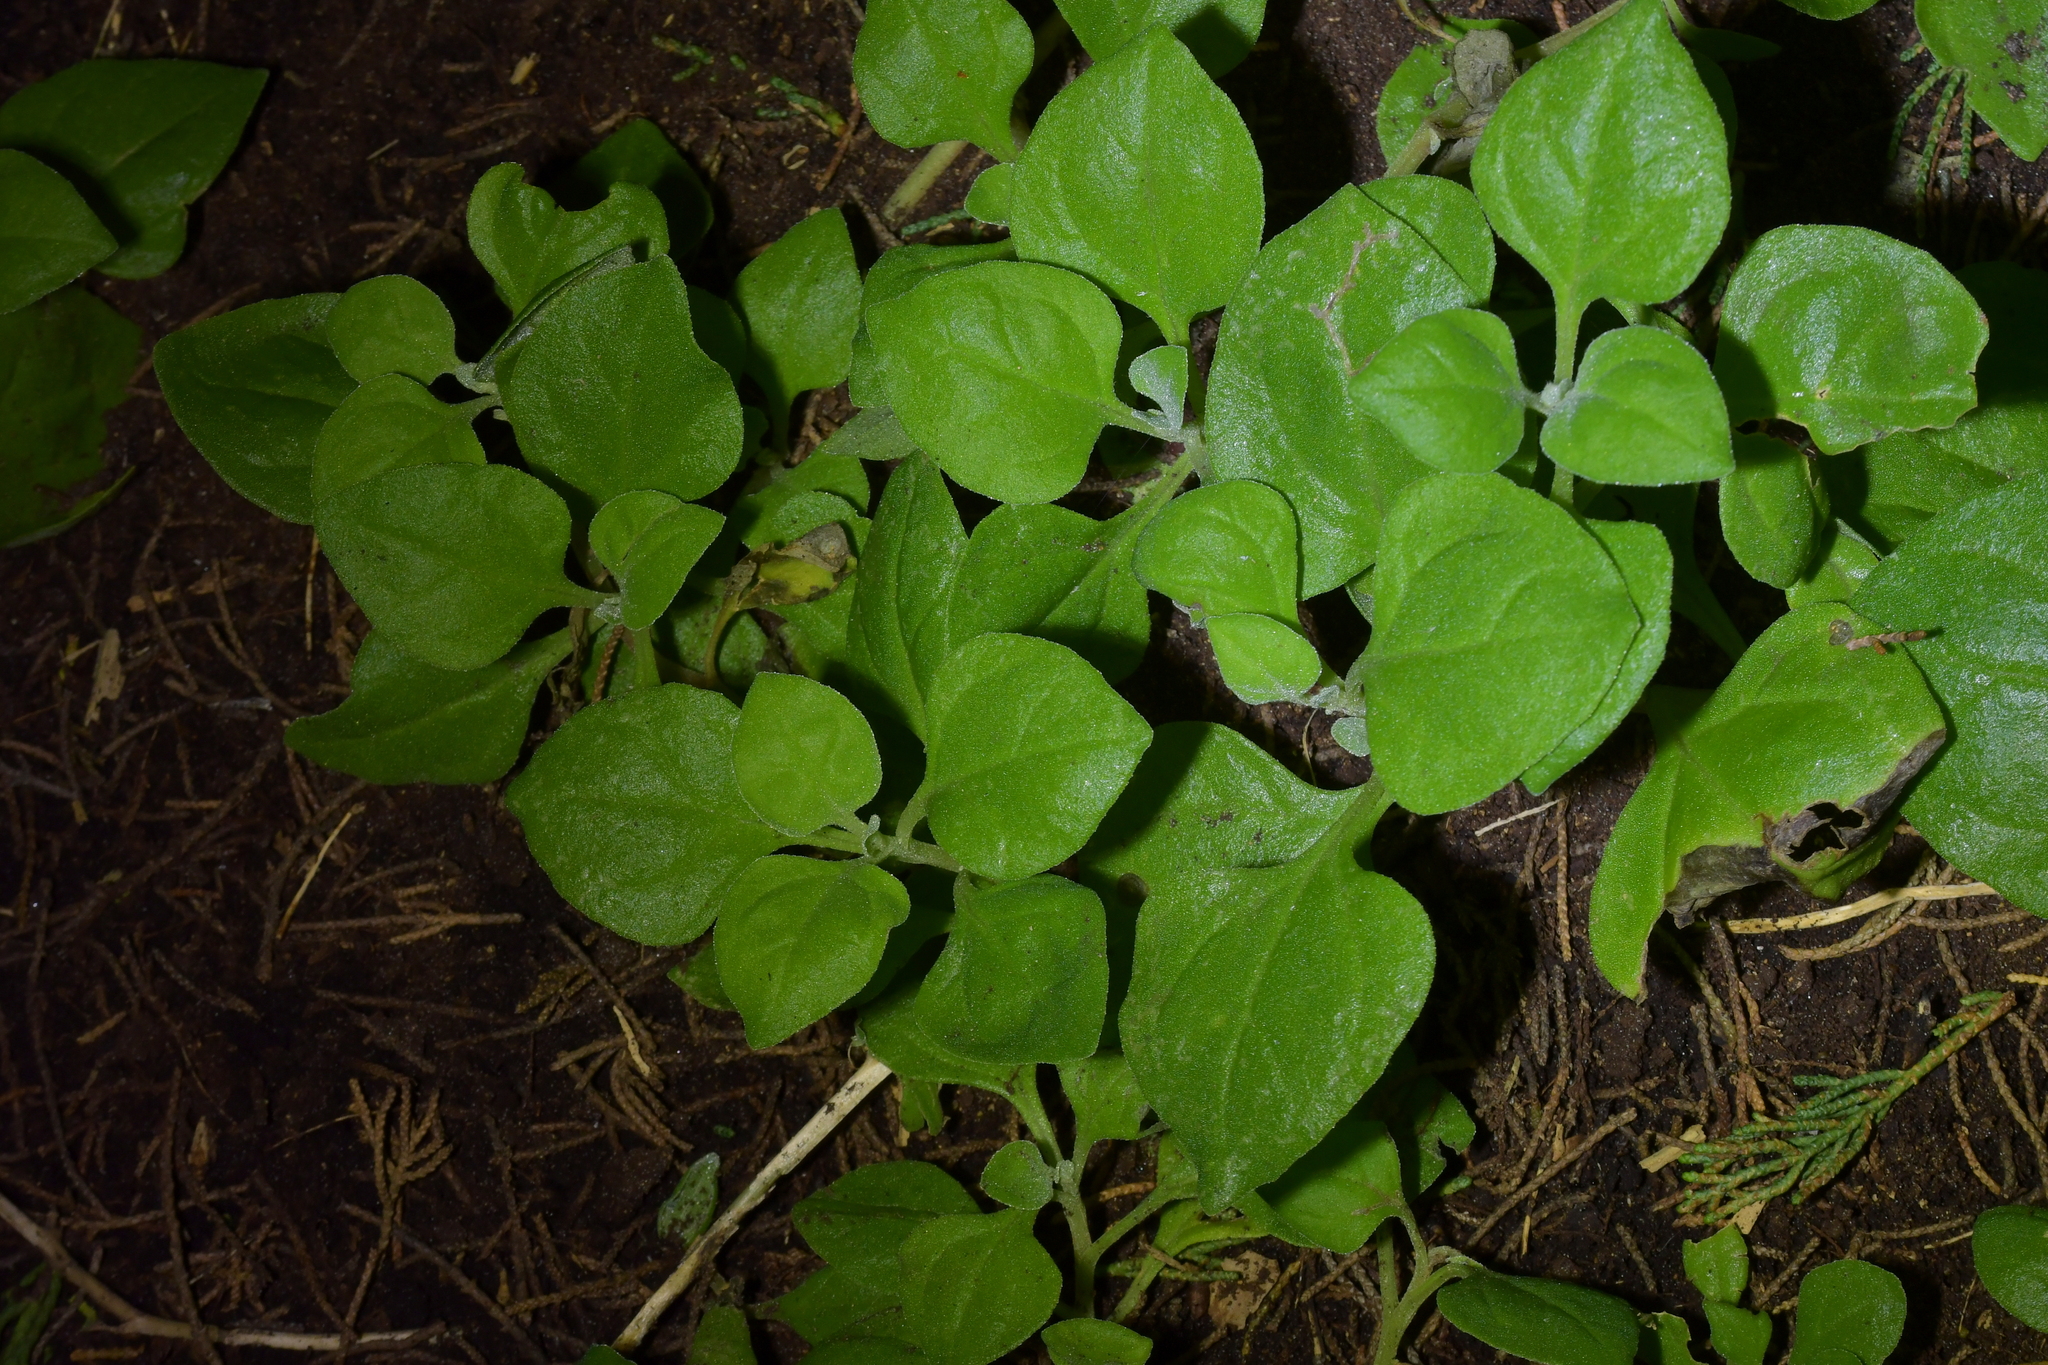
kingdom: Plantae
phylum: Tracheophyta
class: Magnoliopsida
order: Caryophyllales
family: Aizoaceae
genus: Tetragonia
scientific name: Tetragonia implexicoma
